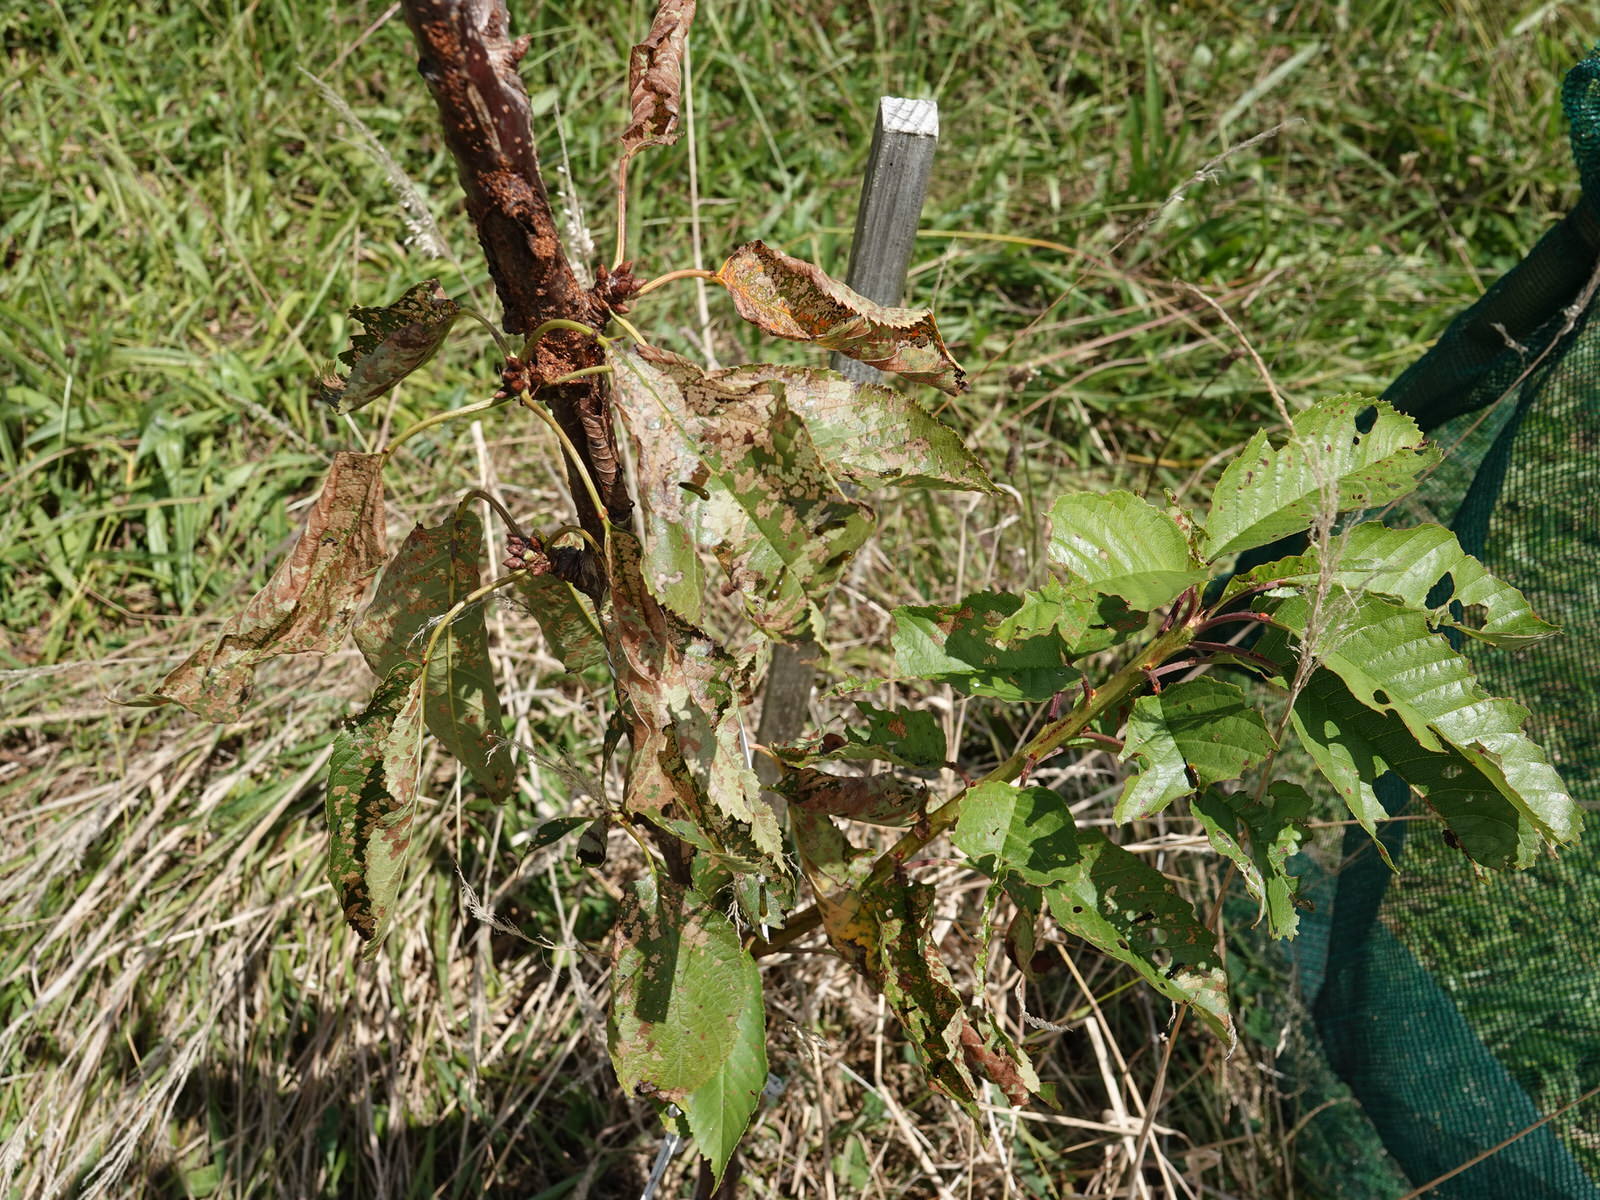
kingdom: Animalia
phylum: Arthropoda
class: Insecta
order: Hymenoptera
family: Tenthredinidae
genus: Caliroa
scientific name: Caliroa cerasi
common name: Pear sawfly
